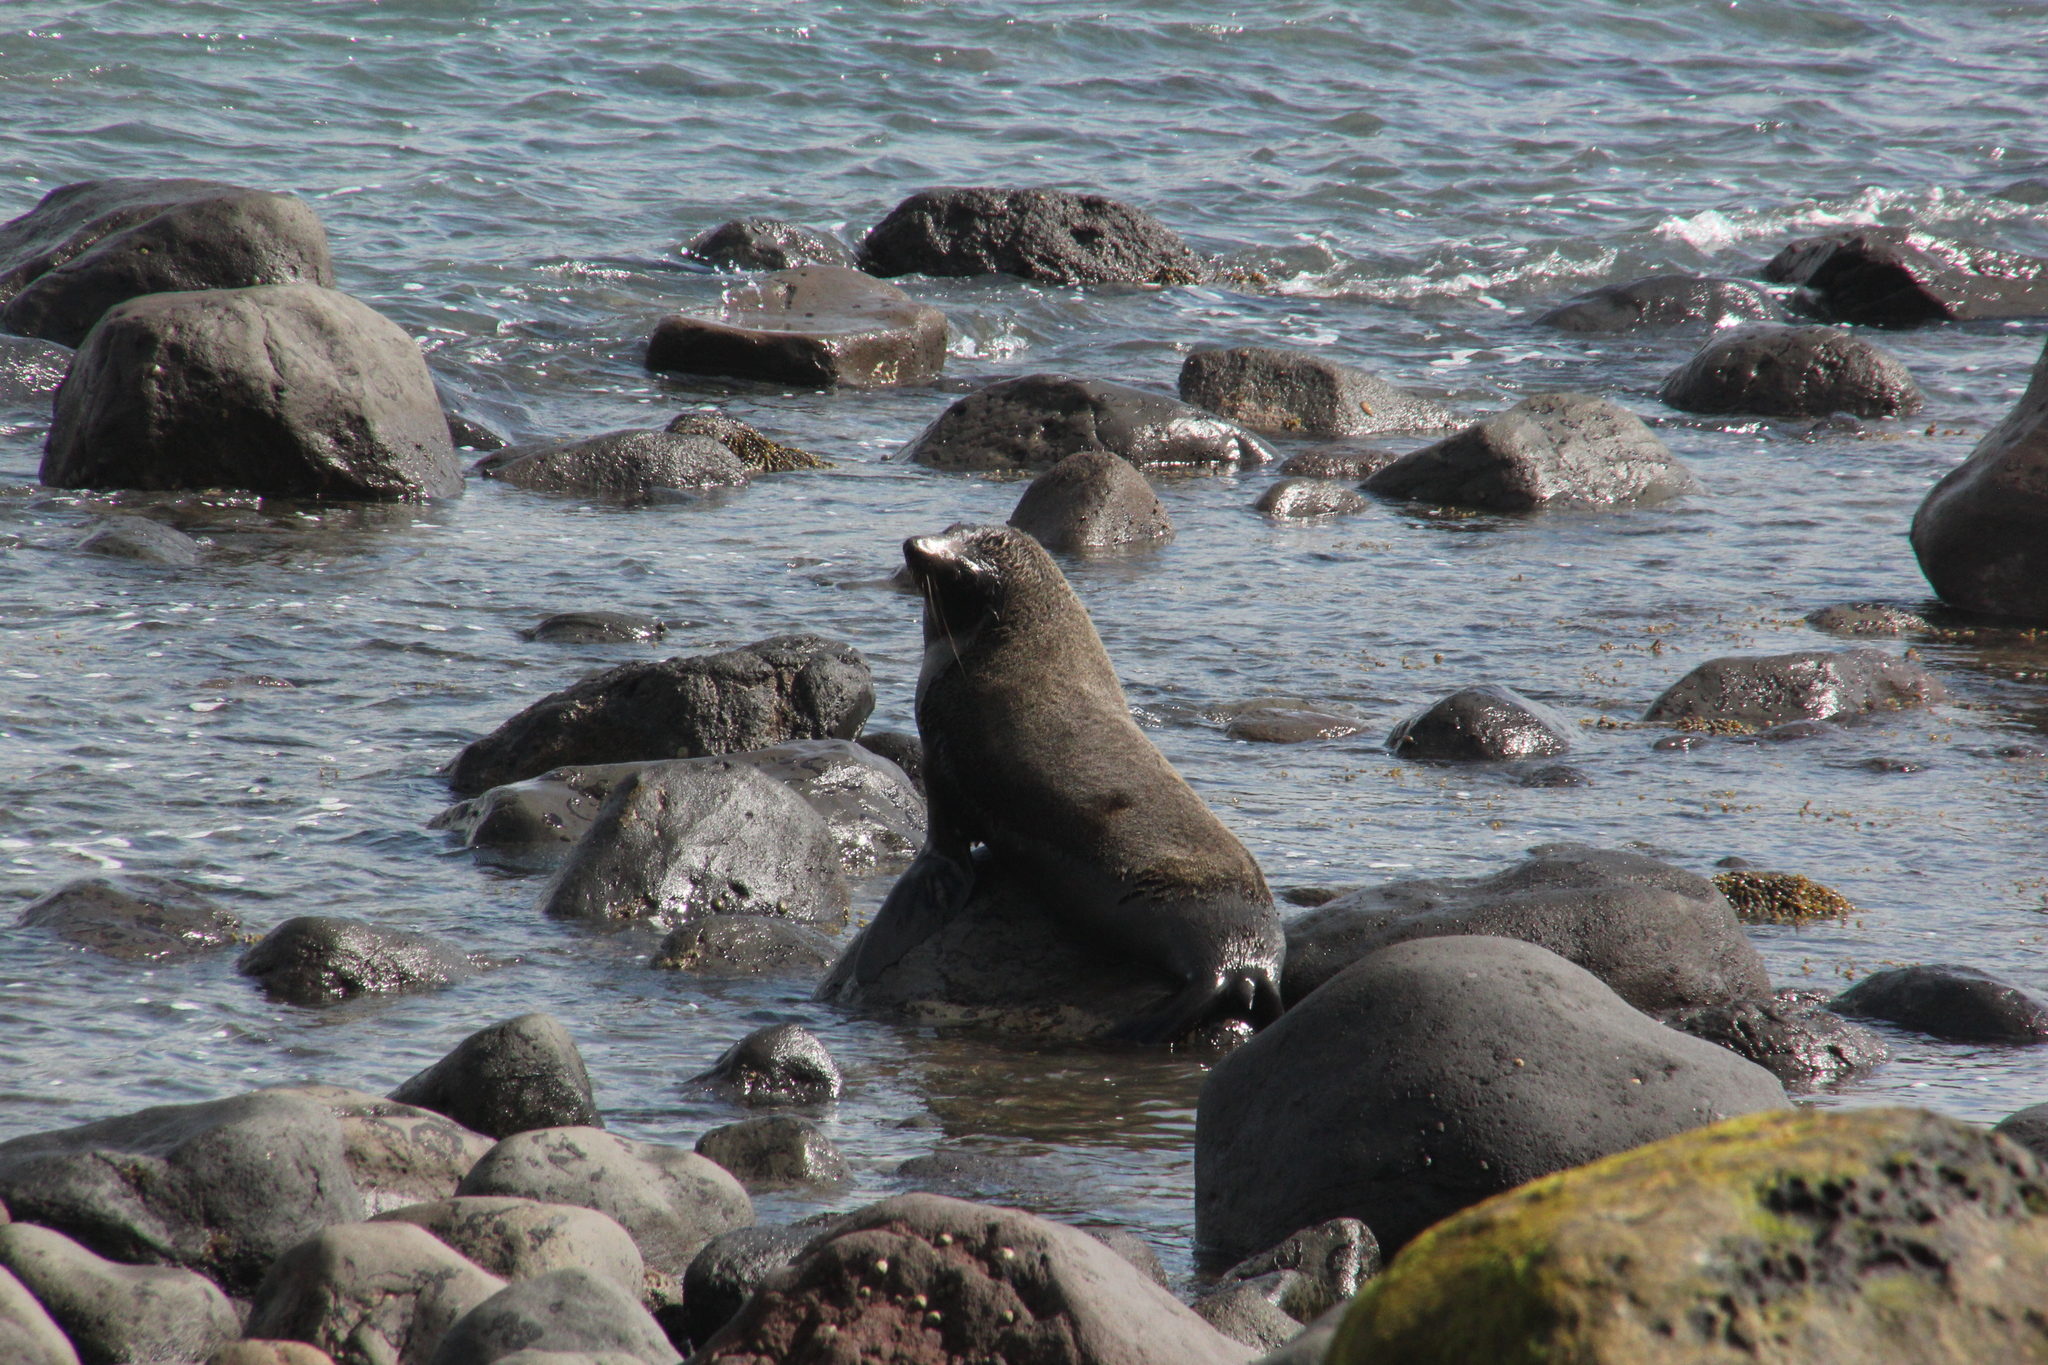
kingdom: Animalia
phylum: Chordata
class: Mammalia
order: Carnivora
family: Otariidae
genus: Arctocephalus
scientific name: Arctocephalus forsteri
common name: New zealand fur seal
